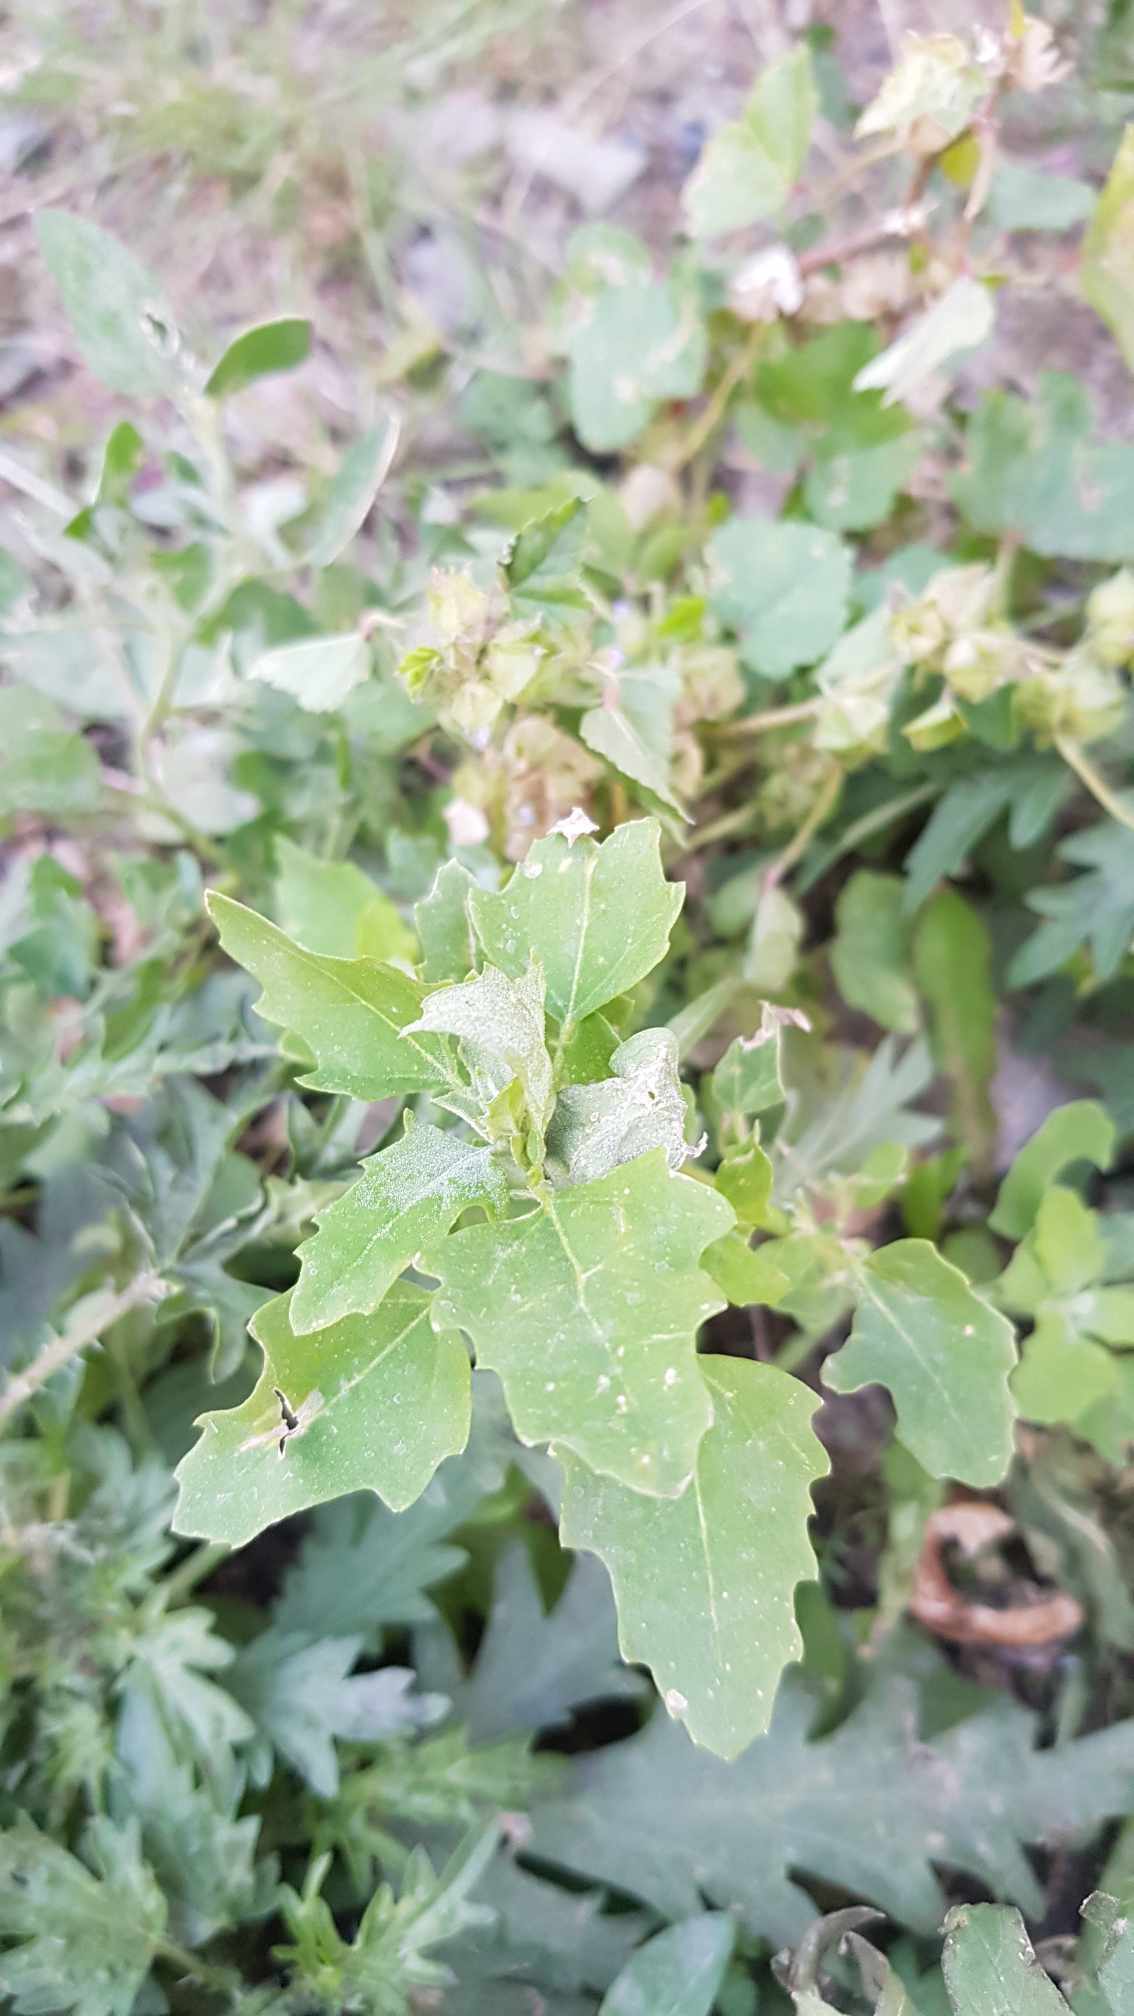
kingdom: Plantae
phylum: Tracheophyta
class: Magnoliopsida
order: Caryophyllales
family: Amaranthaceae
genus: Chenopodium
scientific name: Chenopodium ficifolium
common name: Fig-leaved goosefoot
